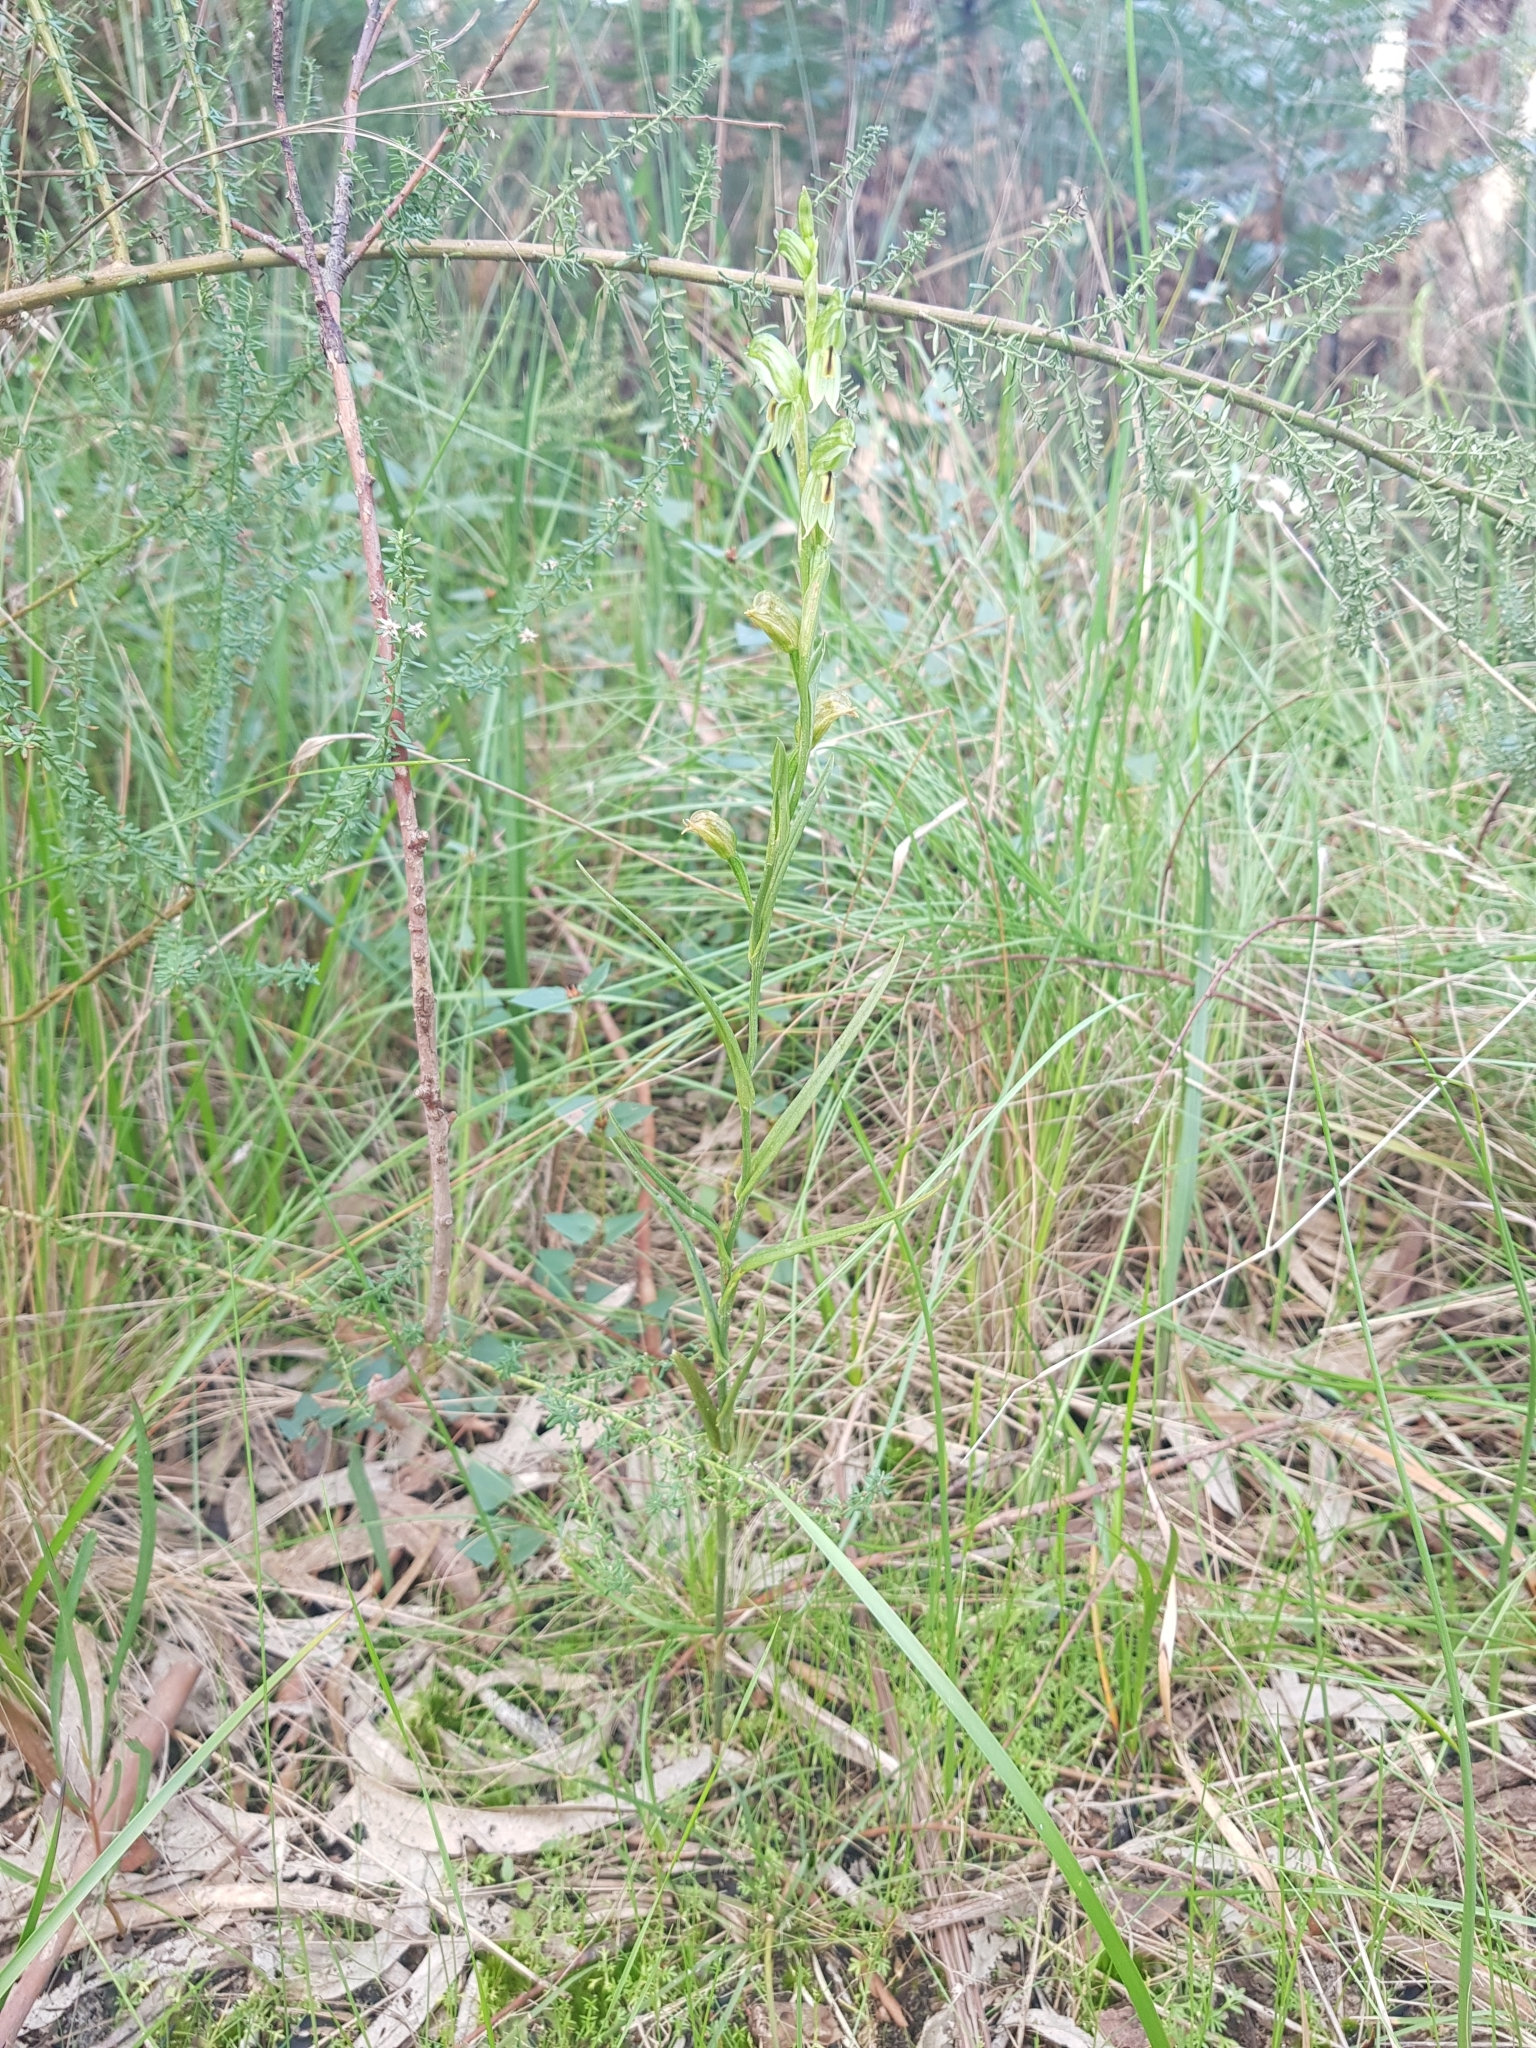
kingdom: Plantae
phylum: Tracheophyta
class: Liliopsida
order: Asparagales
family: Orchidaceae
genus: Pterostylis
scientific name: Pterostylis melagramma
